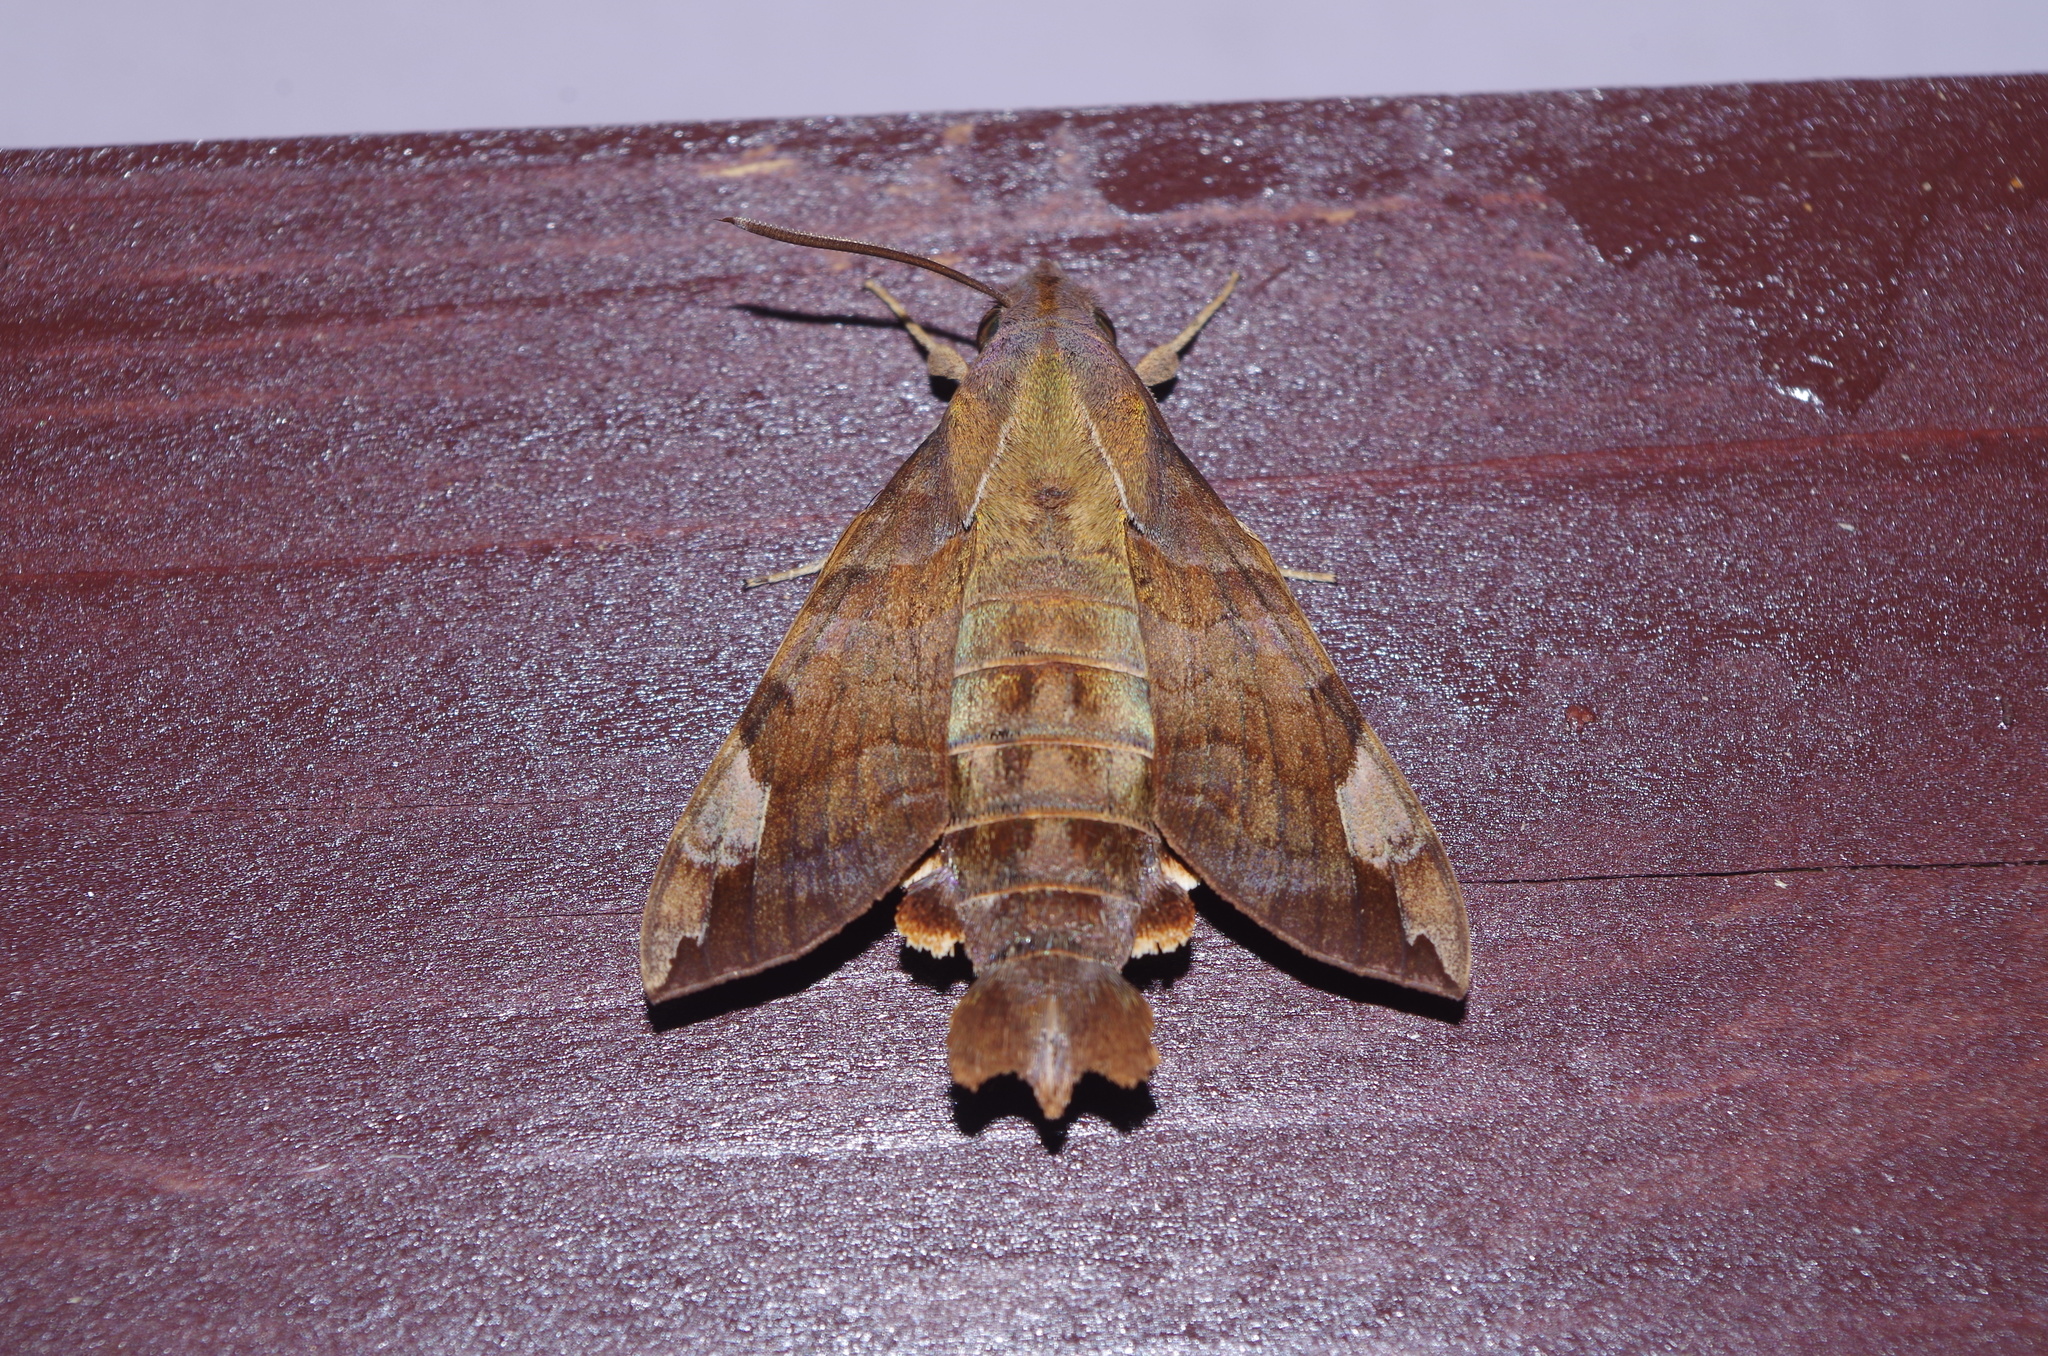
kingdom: Animalia
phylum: Arthropoda
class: Insecta
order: Lepidoptera
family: Sphingidae
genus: Macroglossum
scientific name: Macroglossum saga
